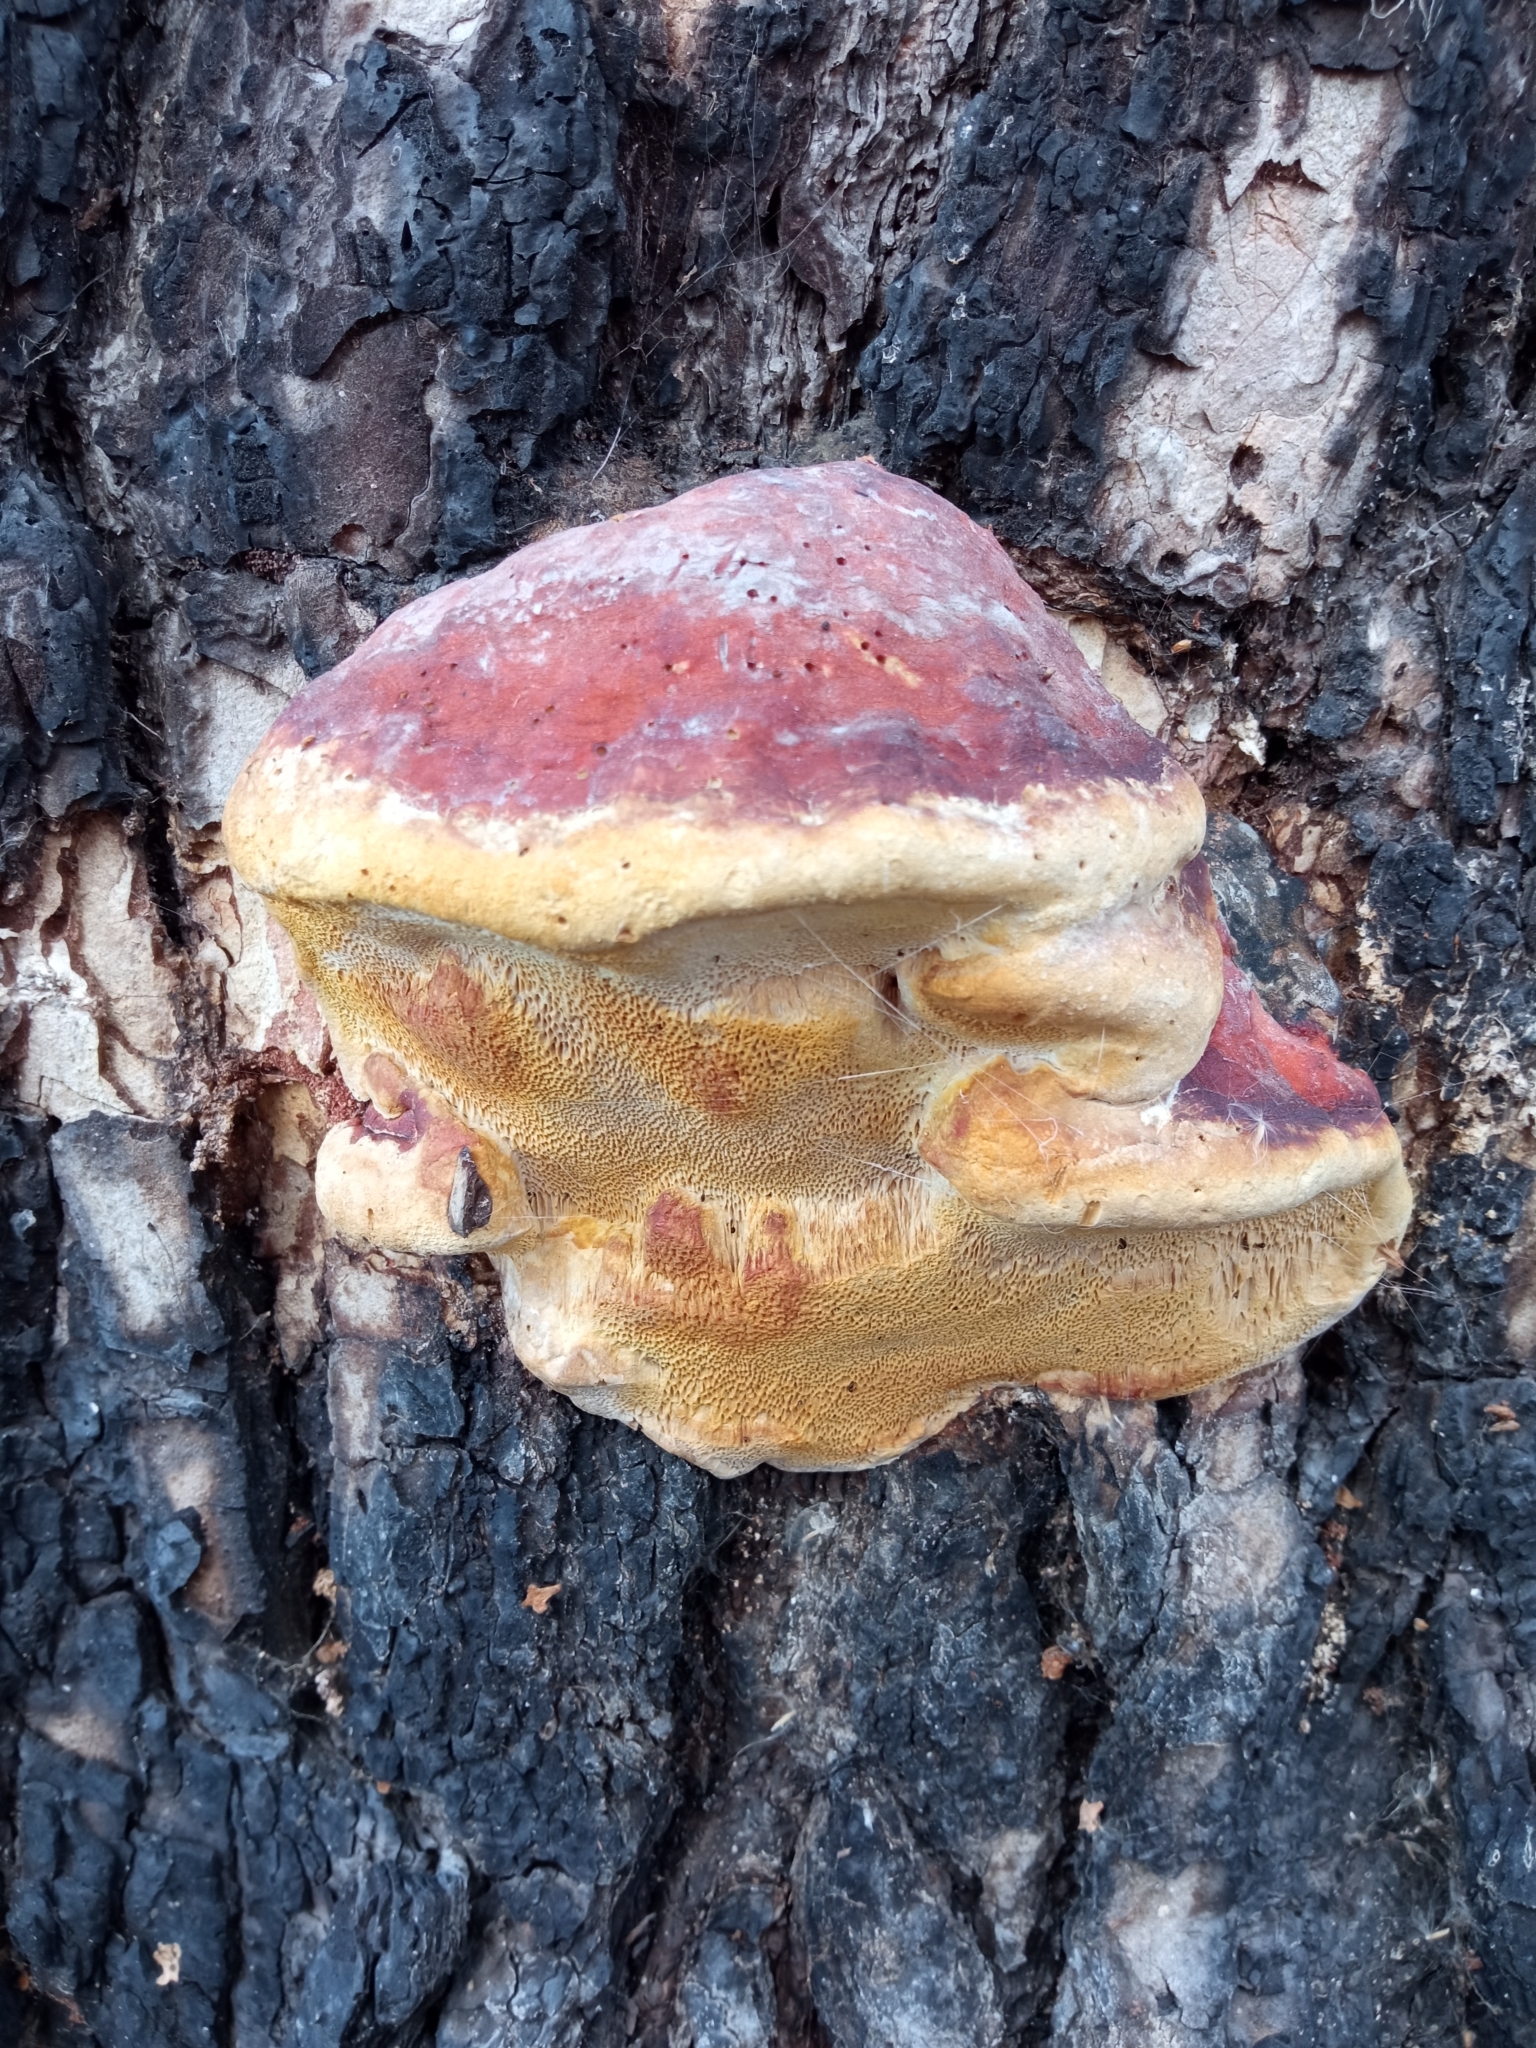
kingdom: Fungi
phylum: Basidiomycota
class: Agaricomycetes
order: Polyporales
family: Fomitopsidaceae
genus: Fomitopsis
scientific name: Fomitopsis pinicola
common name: Red-belted bracket
